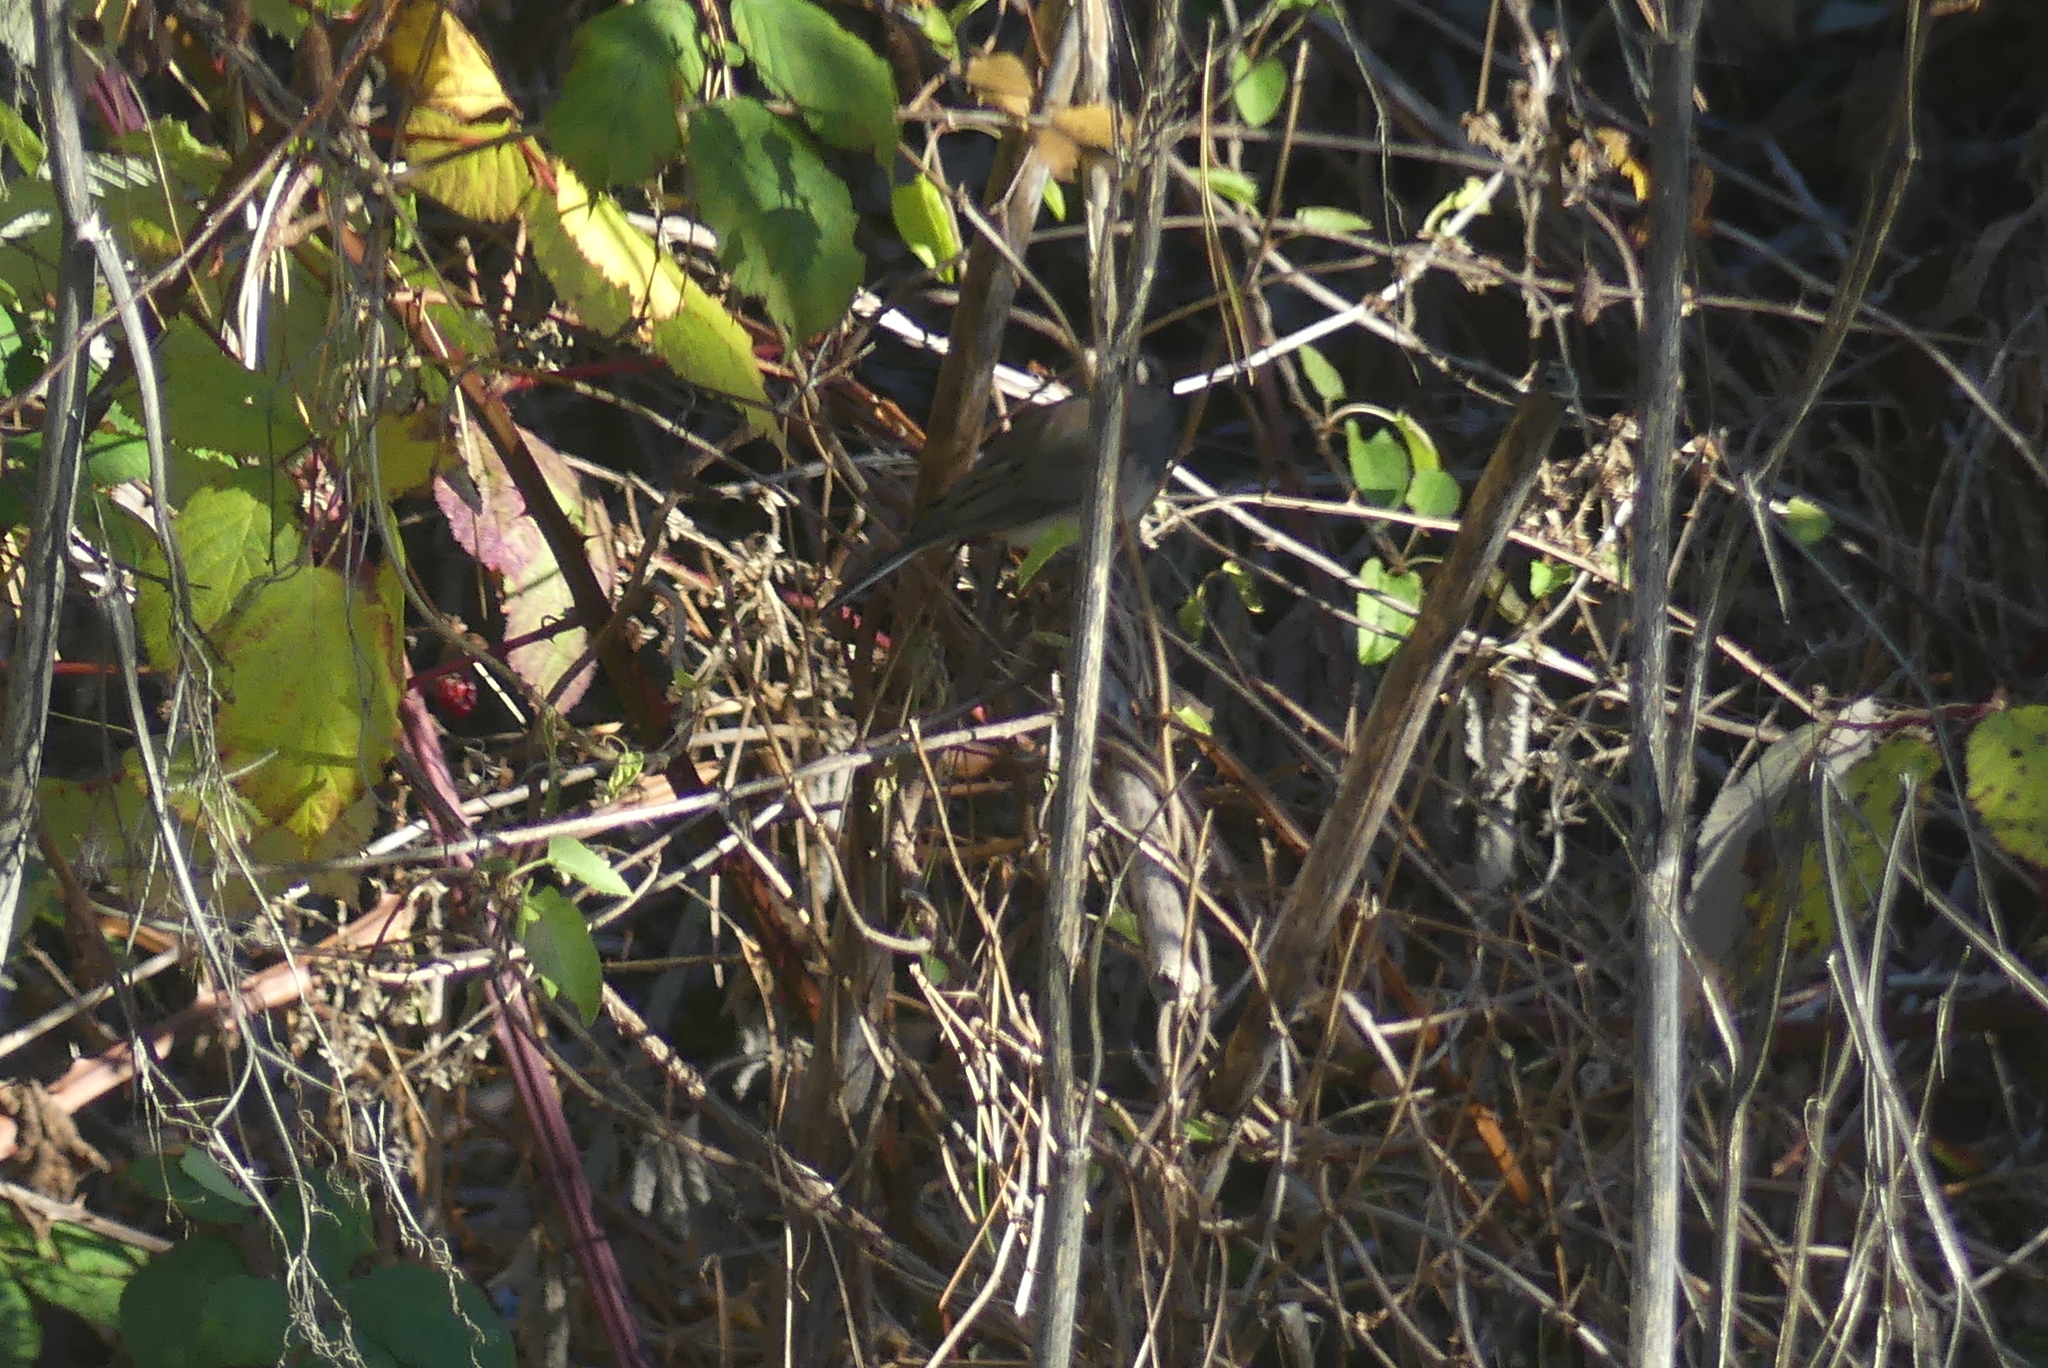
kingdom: Animalia
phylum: Chordata
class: Aves
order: Passeriformes
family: Passerellidae
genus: Junco
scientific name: Junco hyemalis
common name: Dark-eyed junco
